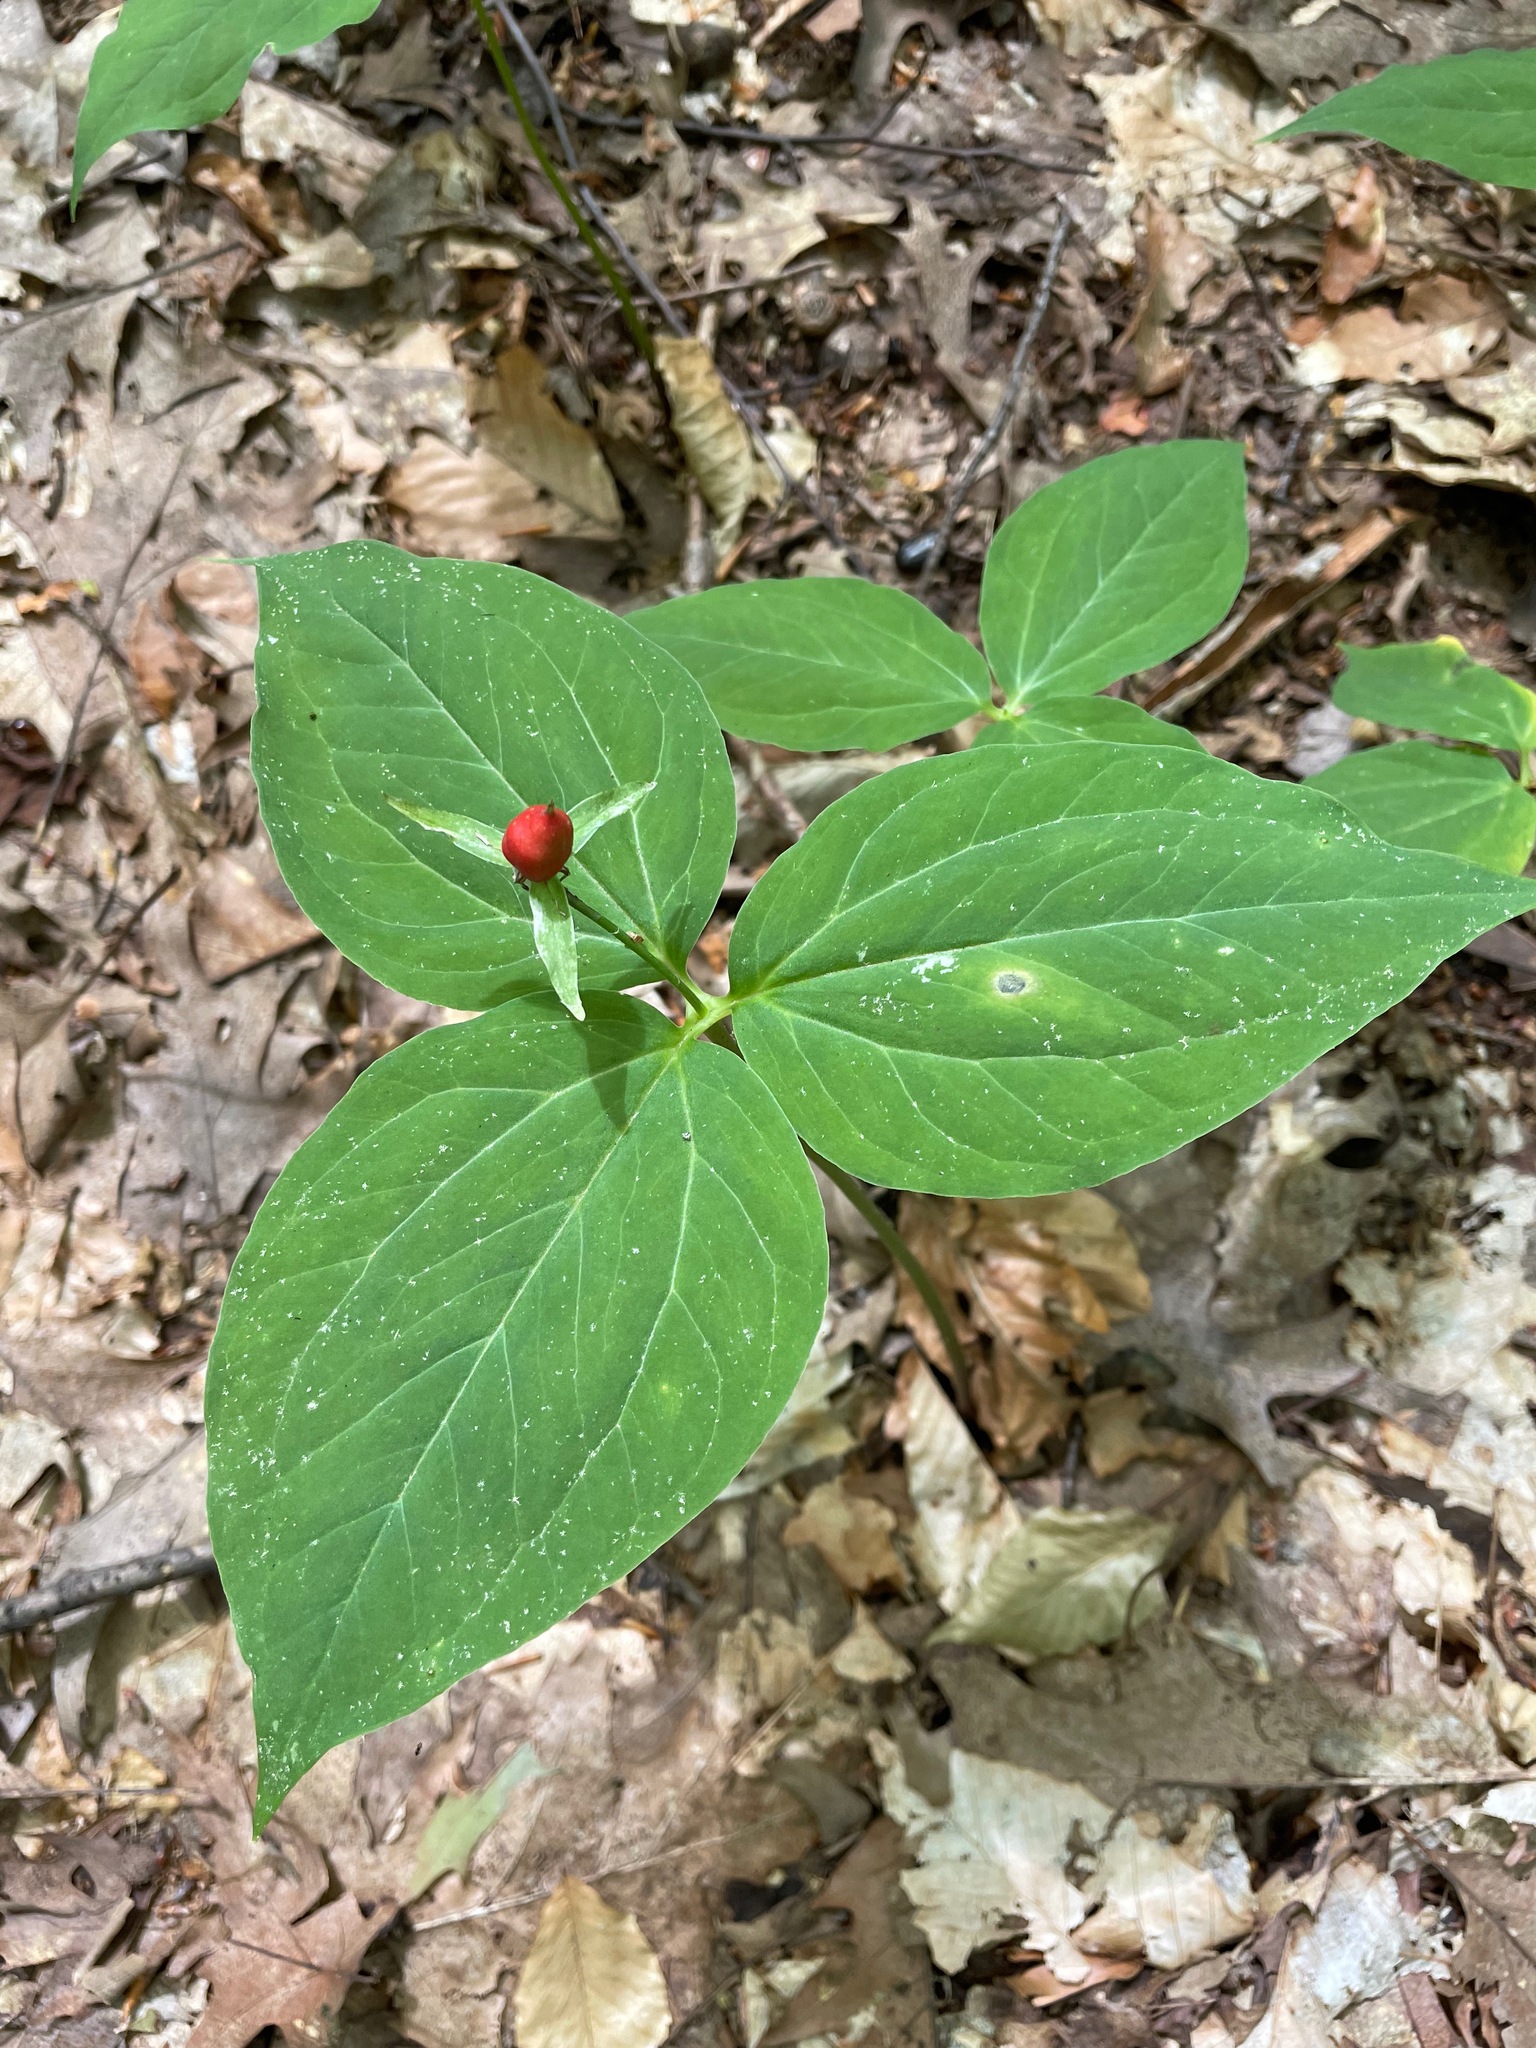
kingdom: Plantae
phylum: Tracheophyta
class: Liliopsida
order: Liliales
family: Melanthiaceae
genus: Trillium
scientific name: Trillium undulatum
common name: Paint trillium
